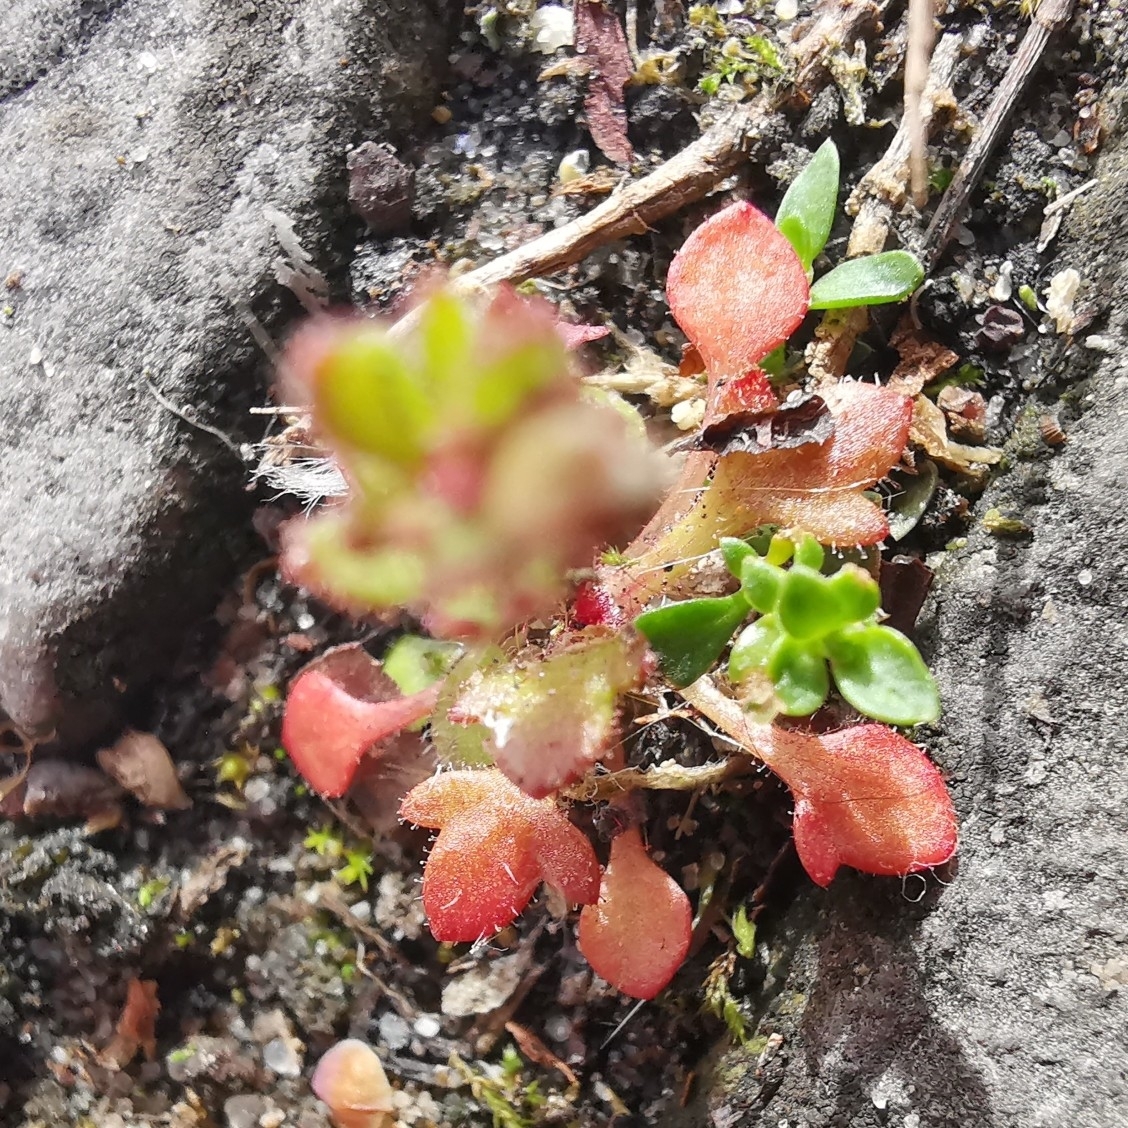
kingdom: Plantae
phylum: Tracheophyta
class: Magnoliopsida
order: Saxifragales
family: Saxifragaceae
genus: Saxifraga
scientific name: Saxifraga tridactylites
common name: Rue-leaved saxifrage
